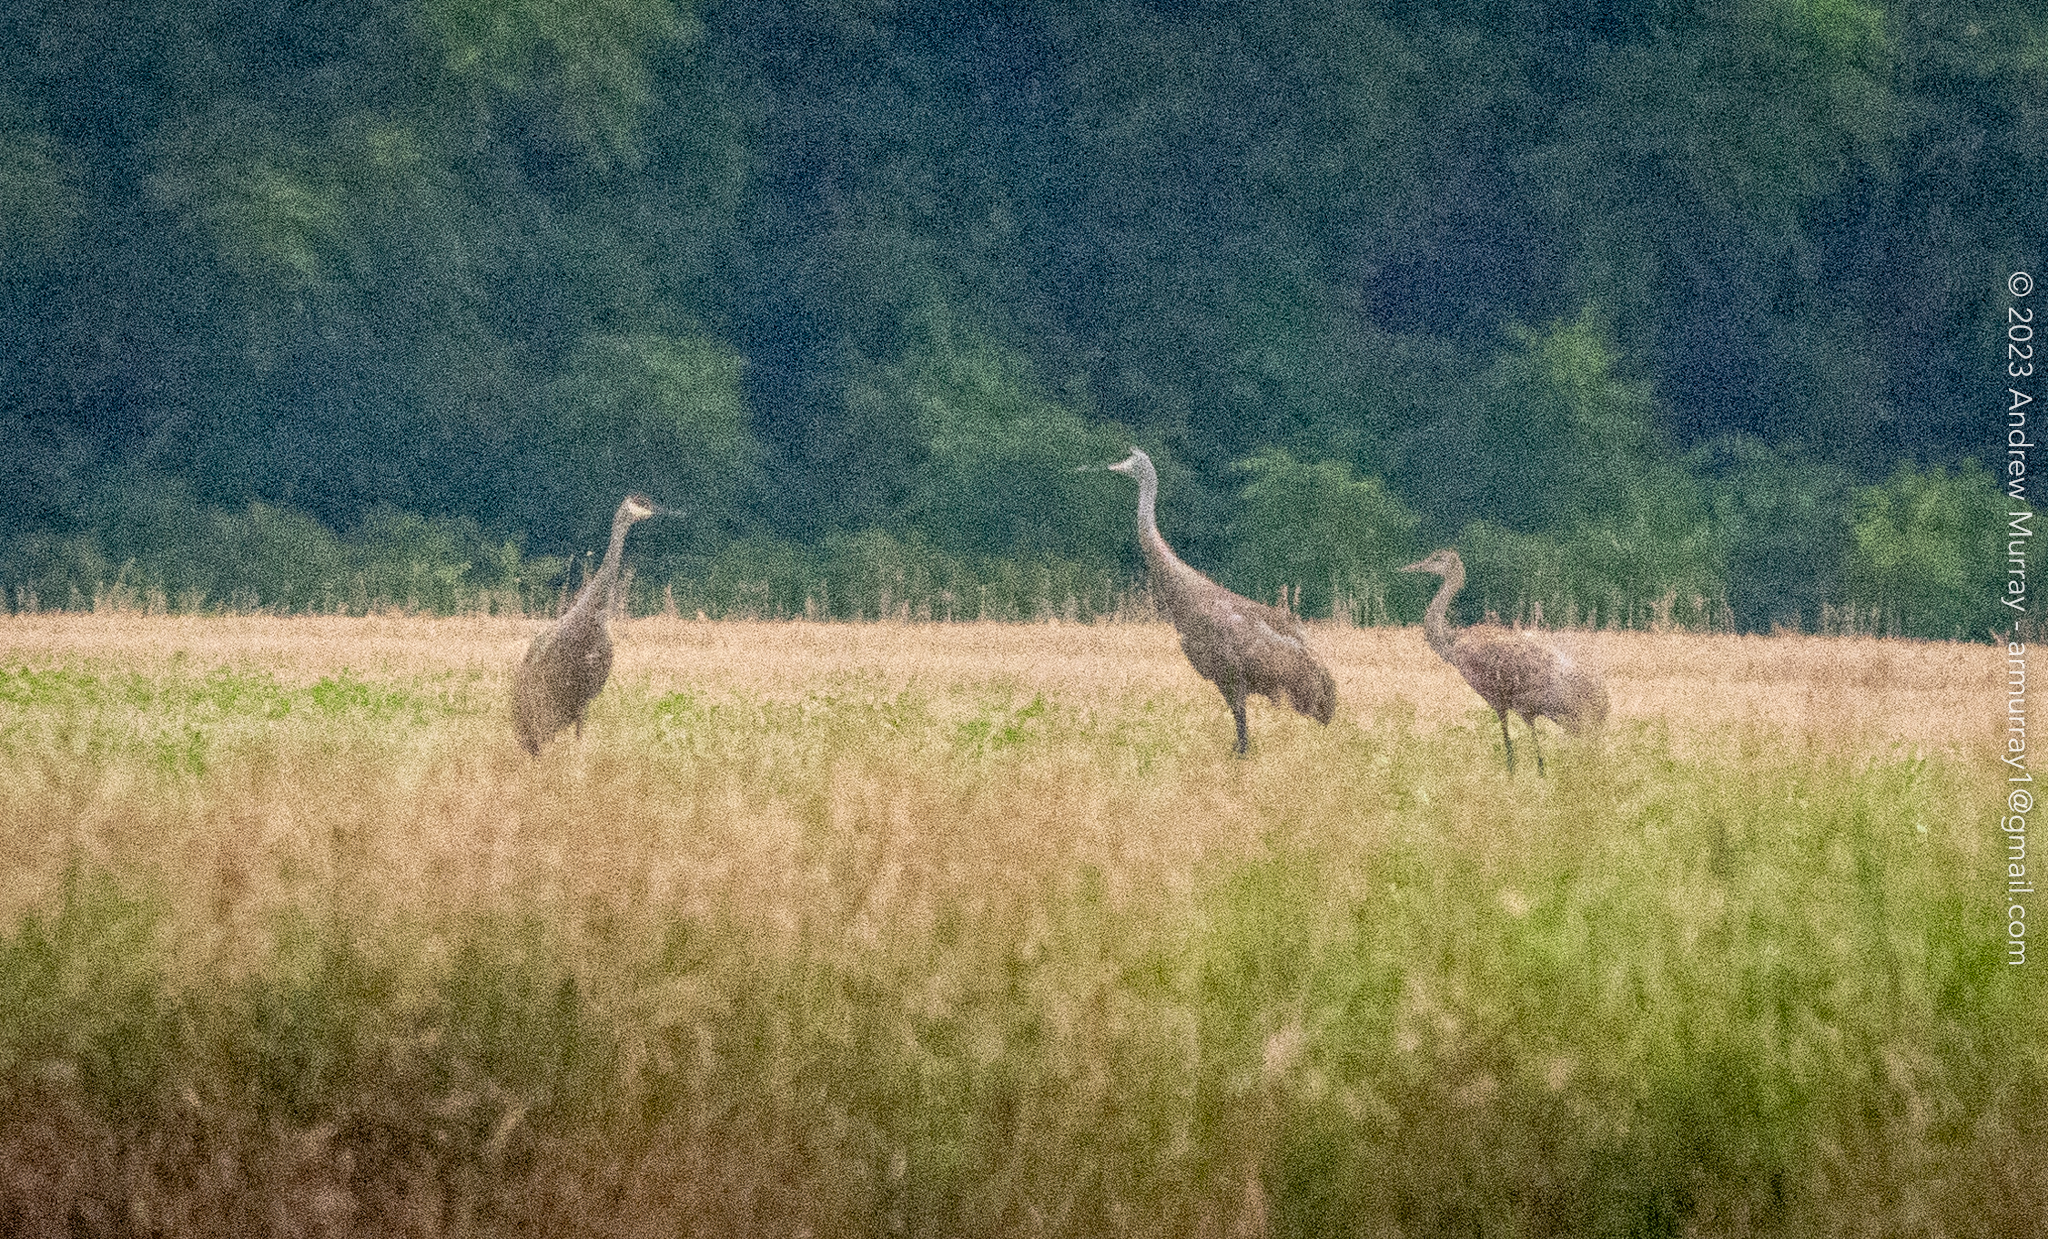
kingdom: Animalia
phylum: Chordata
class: Aves
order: Gruiformes
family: Gruidae
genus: Grus
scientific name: Grus canadensis
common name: Sandhill crane
